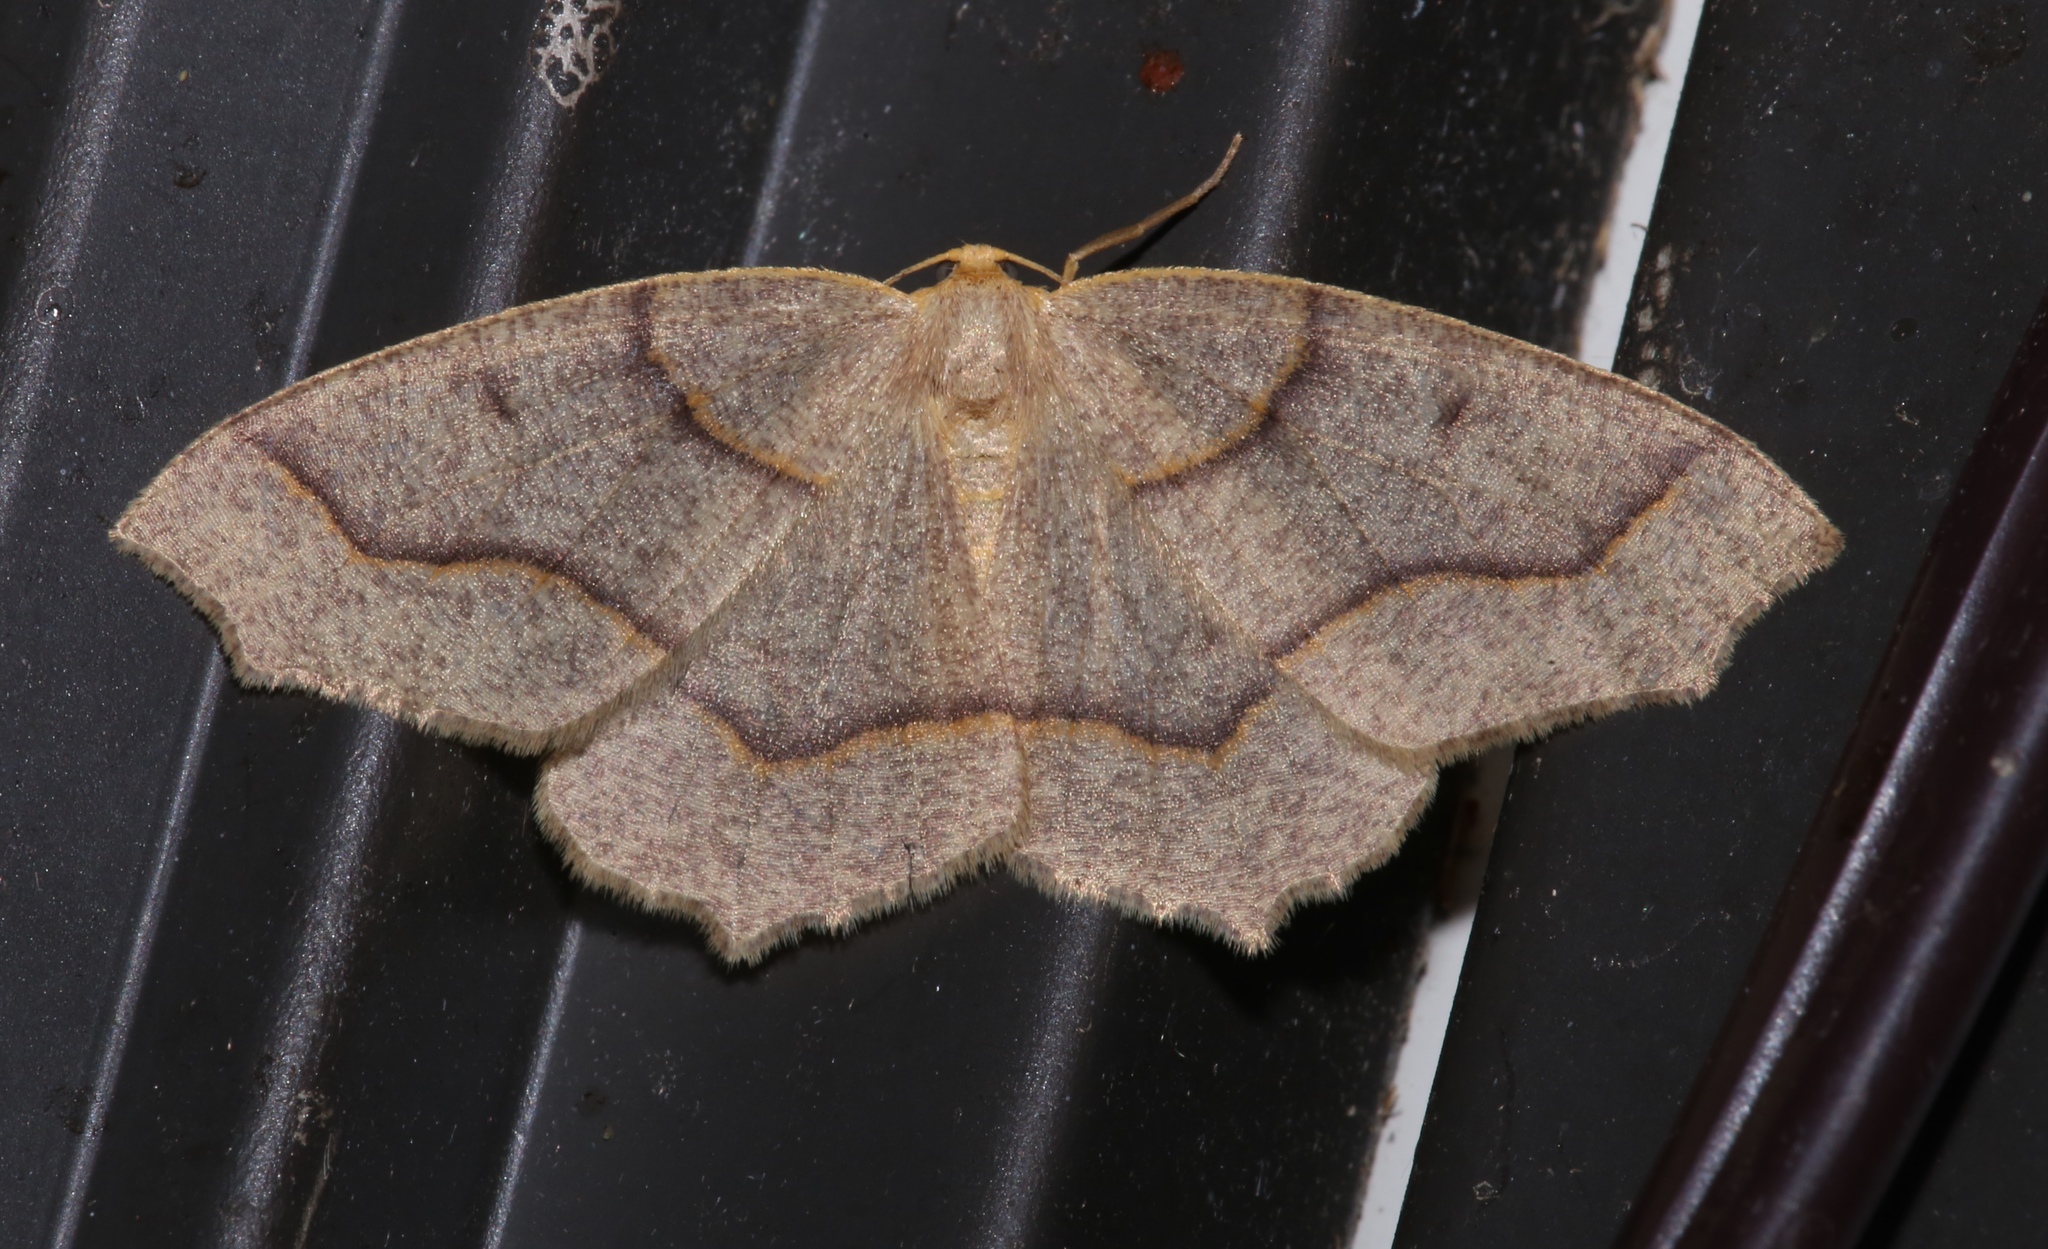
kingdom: Animalia
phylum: Arthropoda
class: Insecta
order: Lepidoptera
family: Geometridae
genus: Lambdina
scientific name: Lambdina fiscellaria
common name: Hemlock looper
